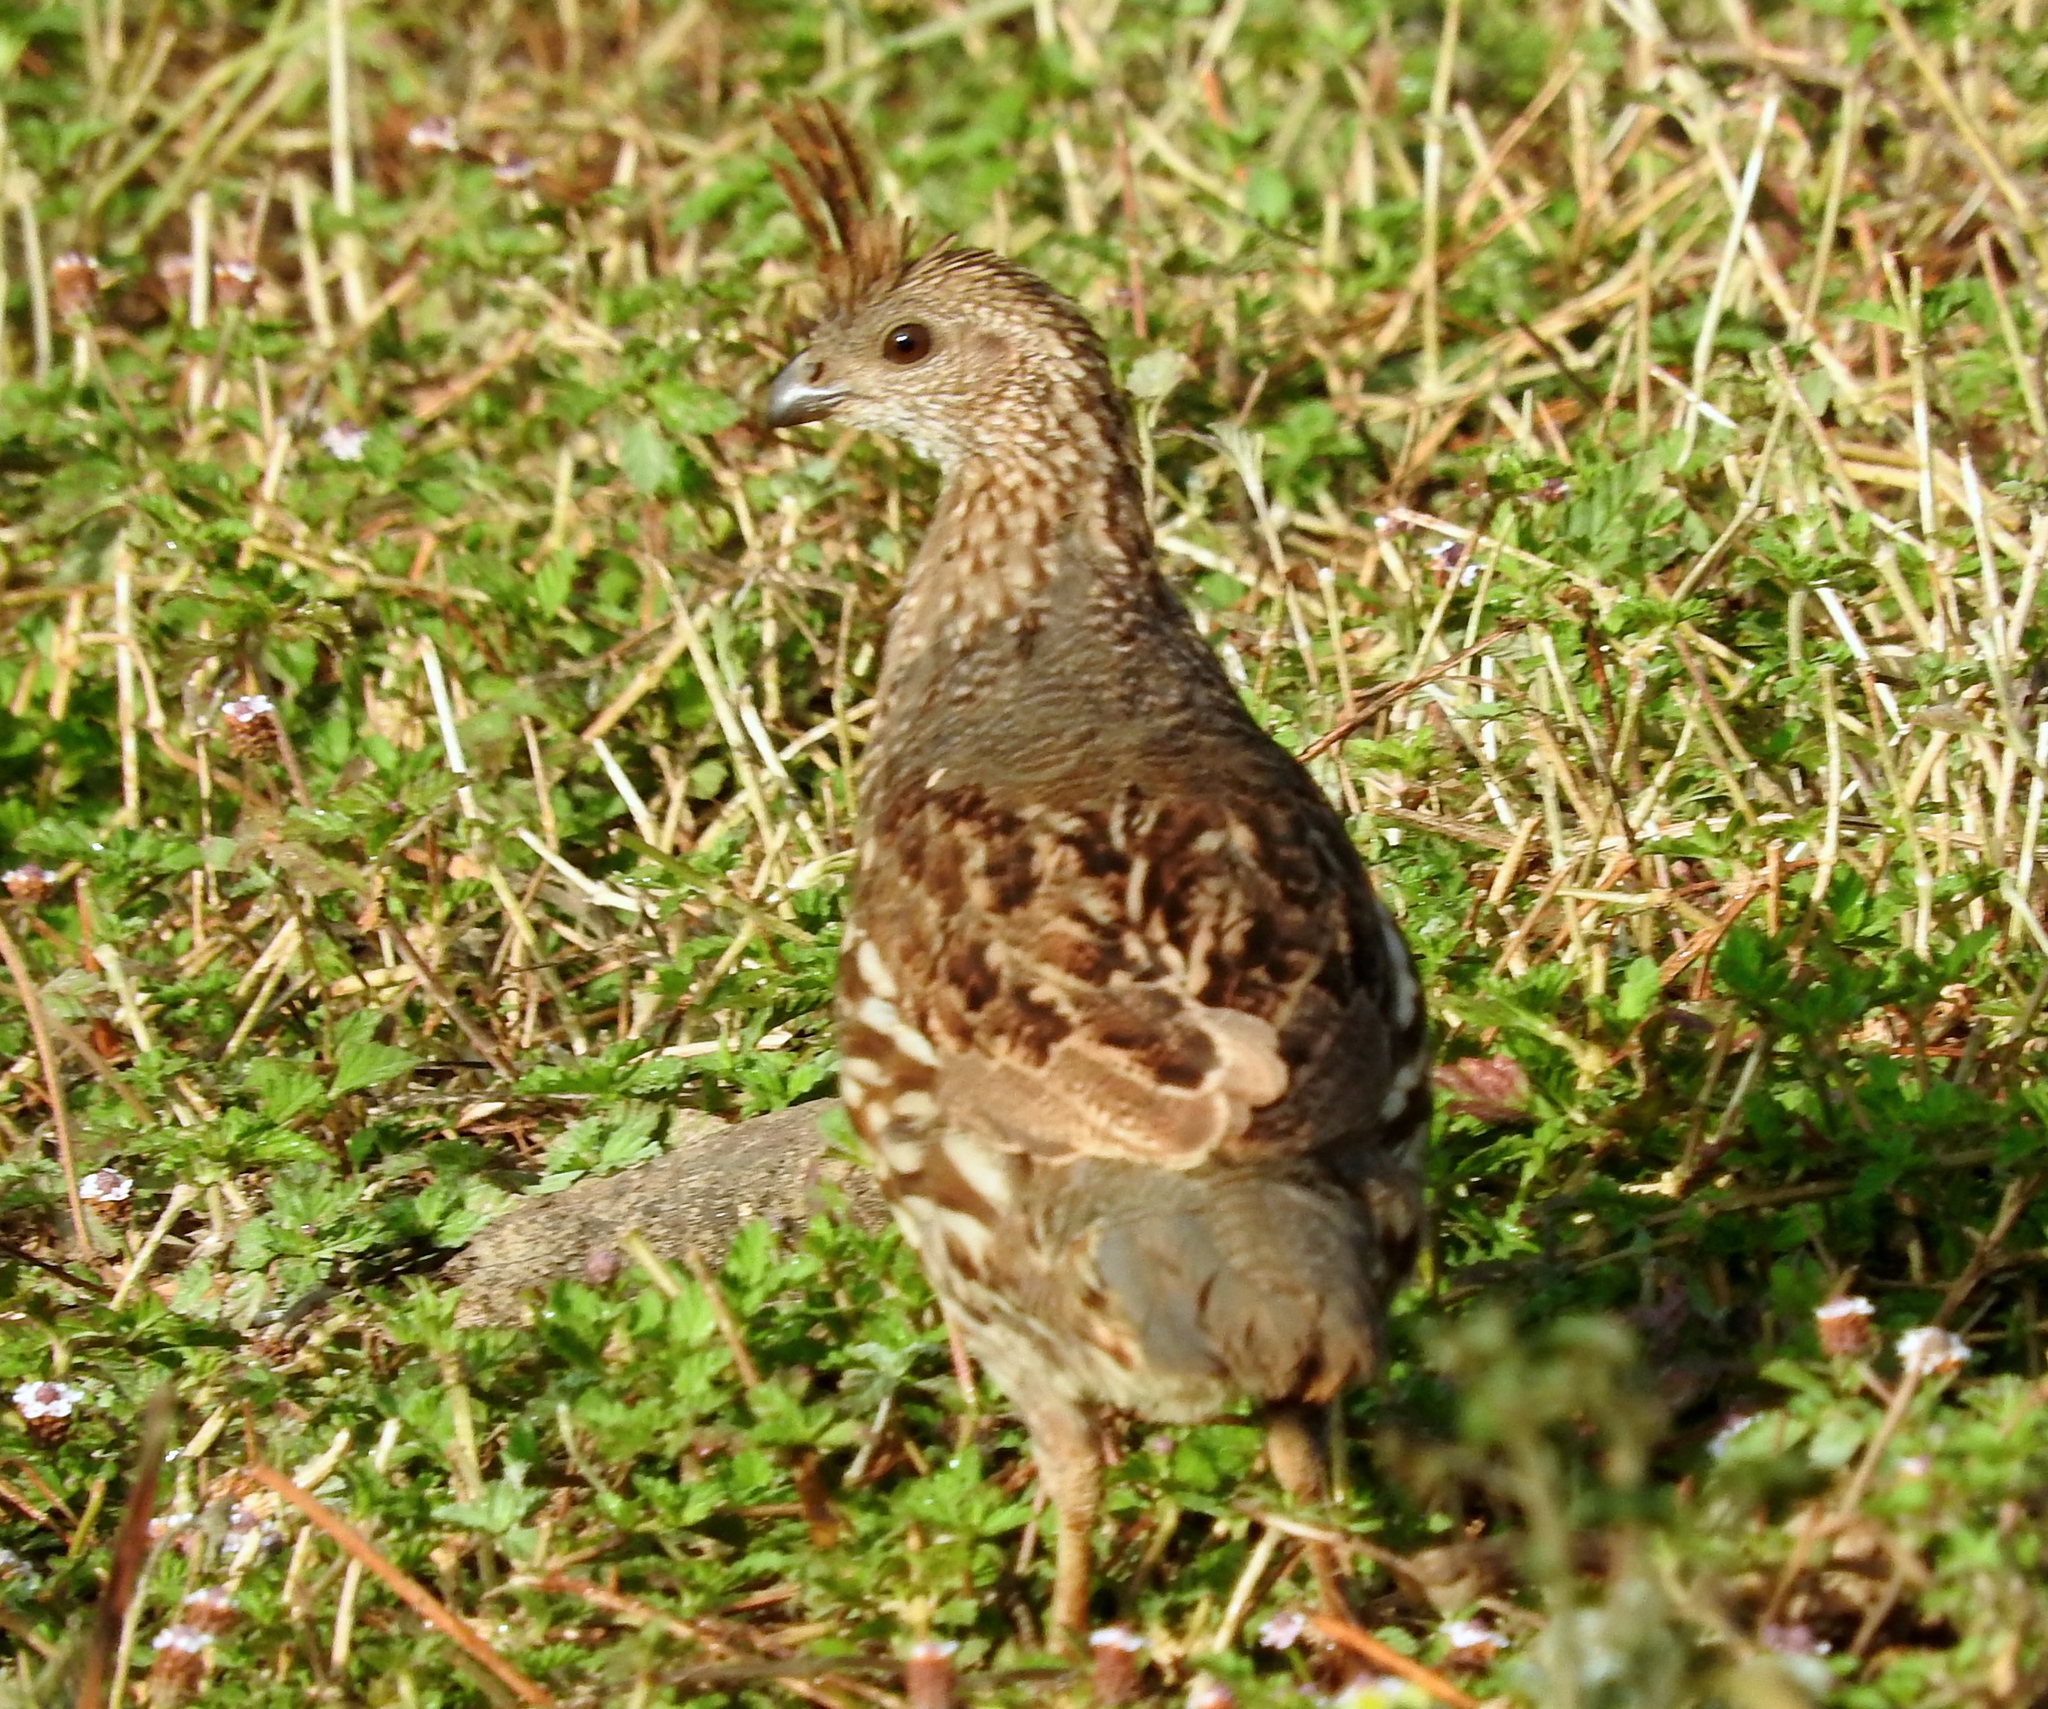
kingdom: Animalia
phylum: Chordata
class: Aves
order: Galliformes
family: Odontophoridae
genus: Callipepla
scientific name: Callipepla douglasii
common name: Elegant quail
